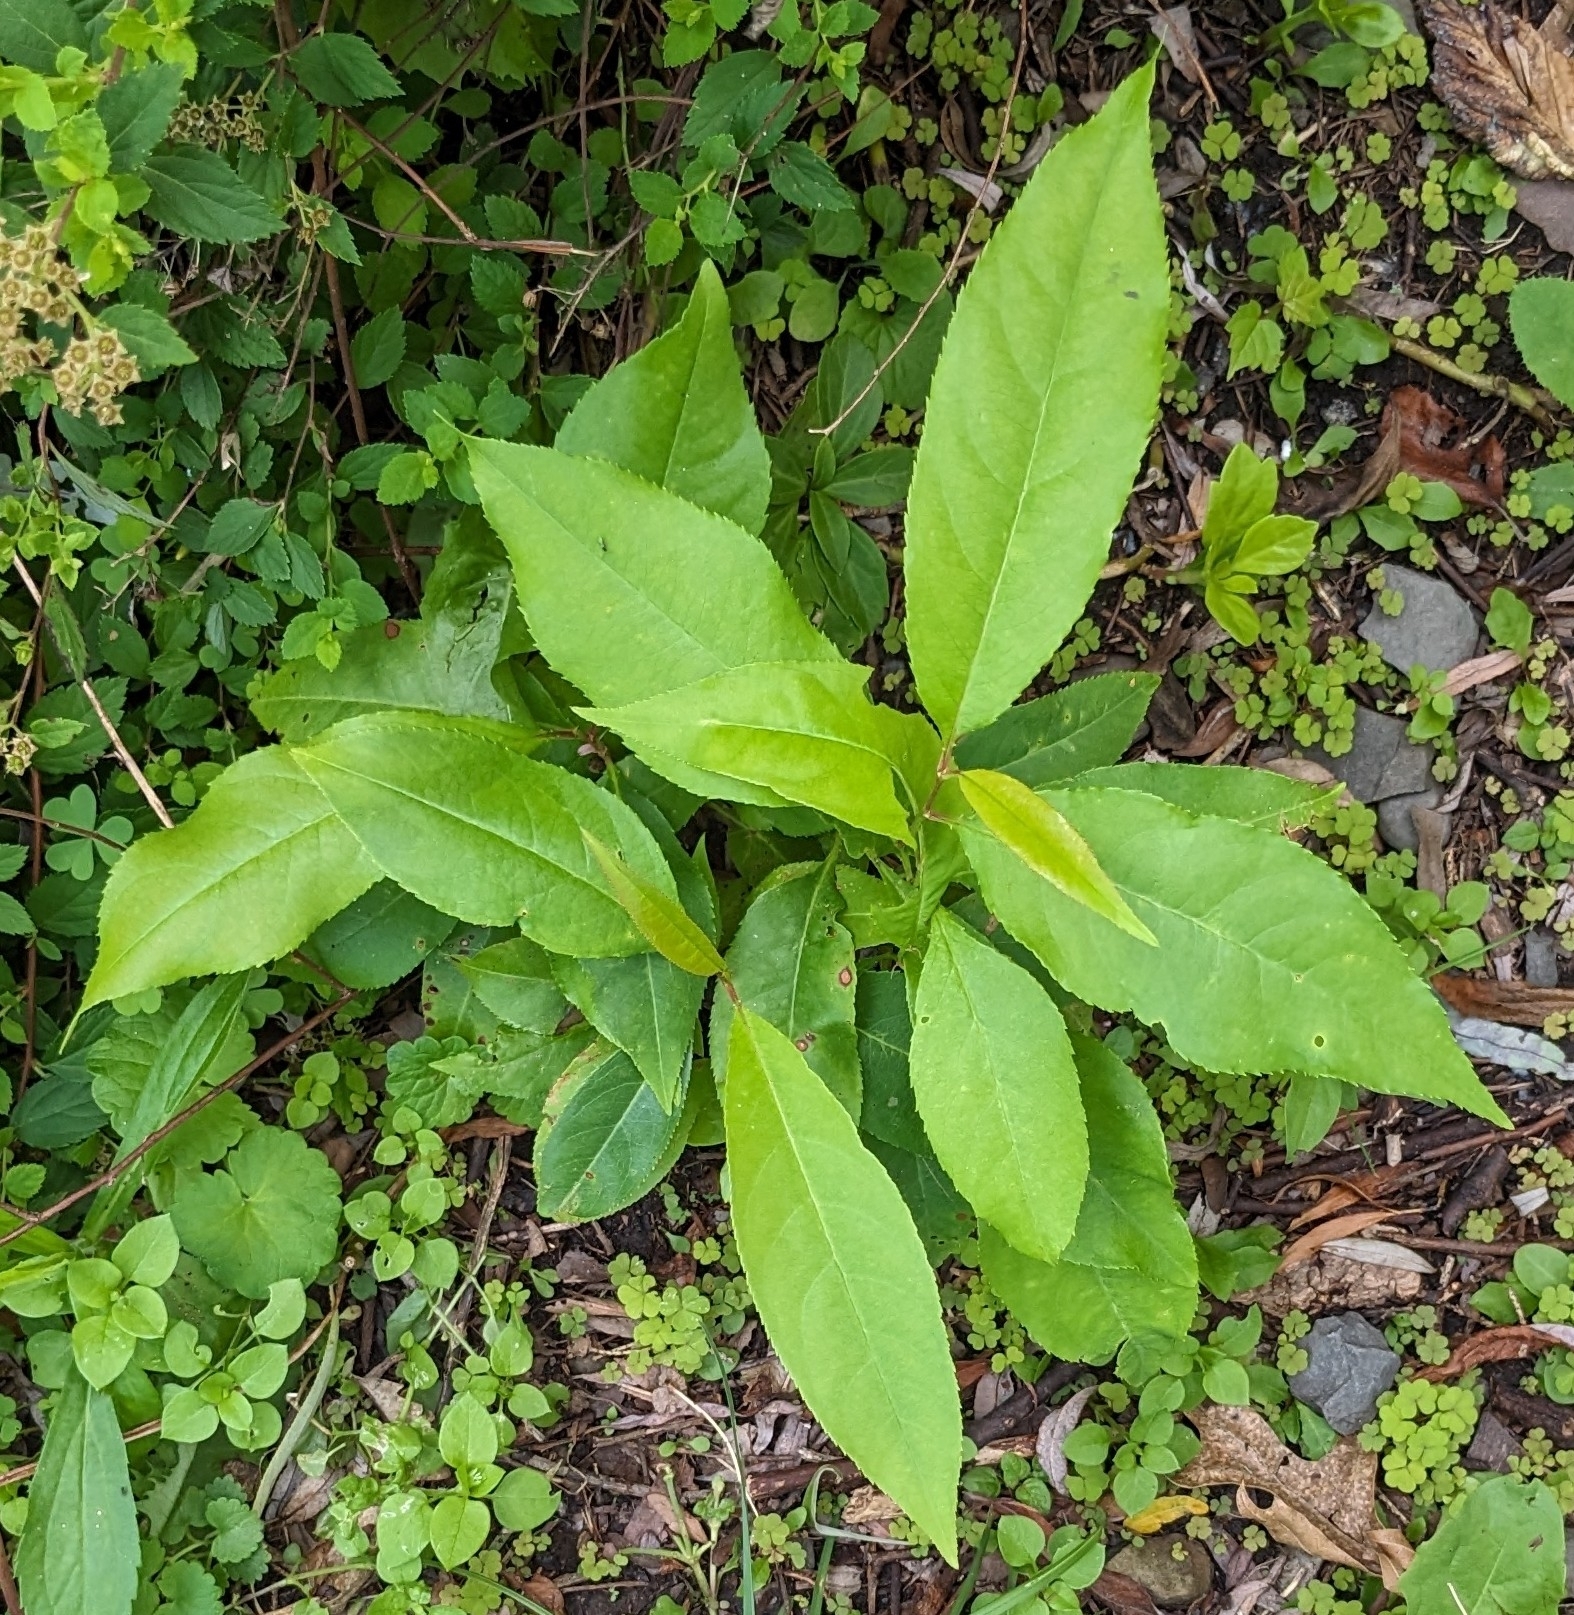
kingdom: Plantae
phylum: Tracheophyta
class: Magnoliopsida
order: Rosales
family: Rosaceae
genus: Prunus
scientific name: Prunus serotina
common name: Black cherry
